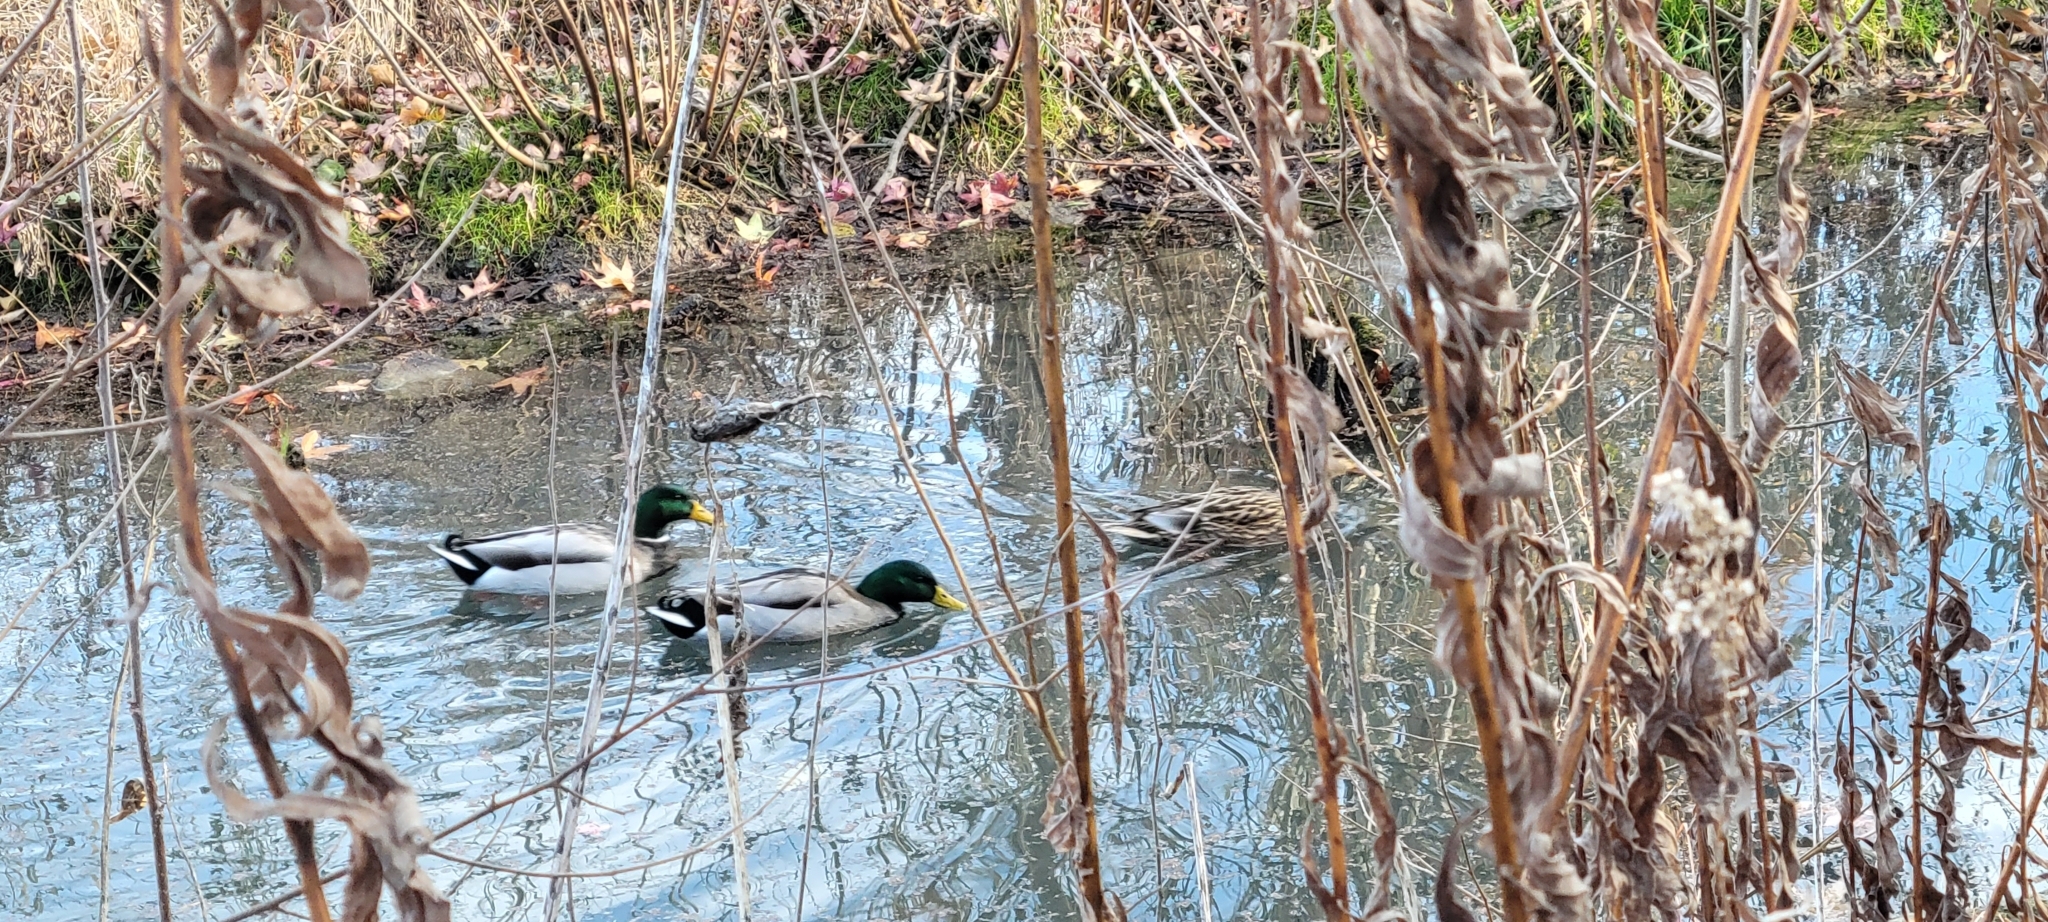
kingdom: Animalia
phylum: Chordata
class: Aves
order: Anseriformes
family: Anatidae
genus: Anas
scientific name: Anas platyrhynchos
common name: Mallard
